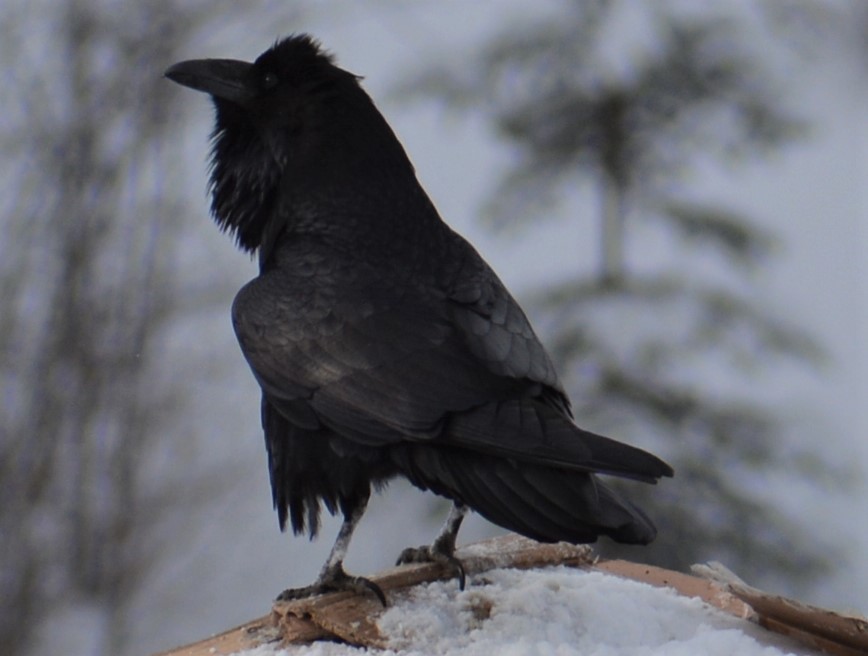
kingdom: Animalia
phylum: Chordata
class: Aves
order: Passeriformes
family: Corvidae
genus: Corvus
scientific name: Corvus corax
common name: Common raven
